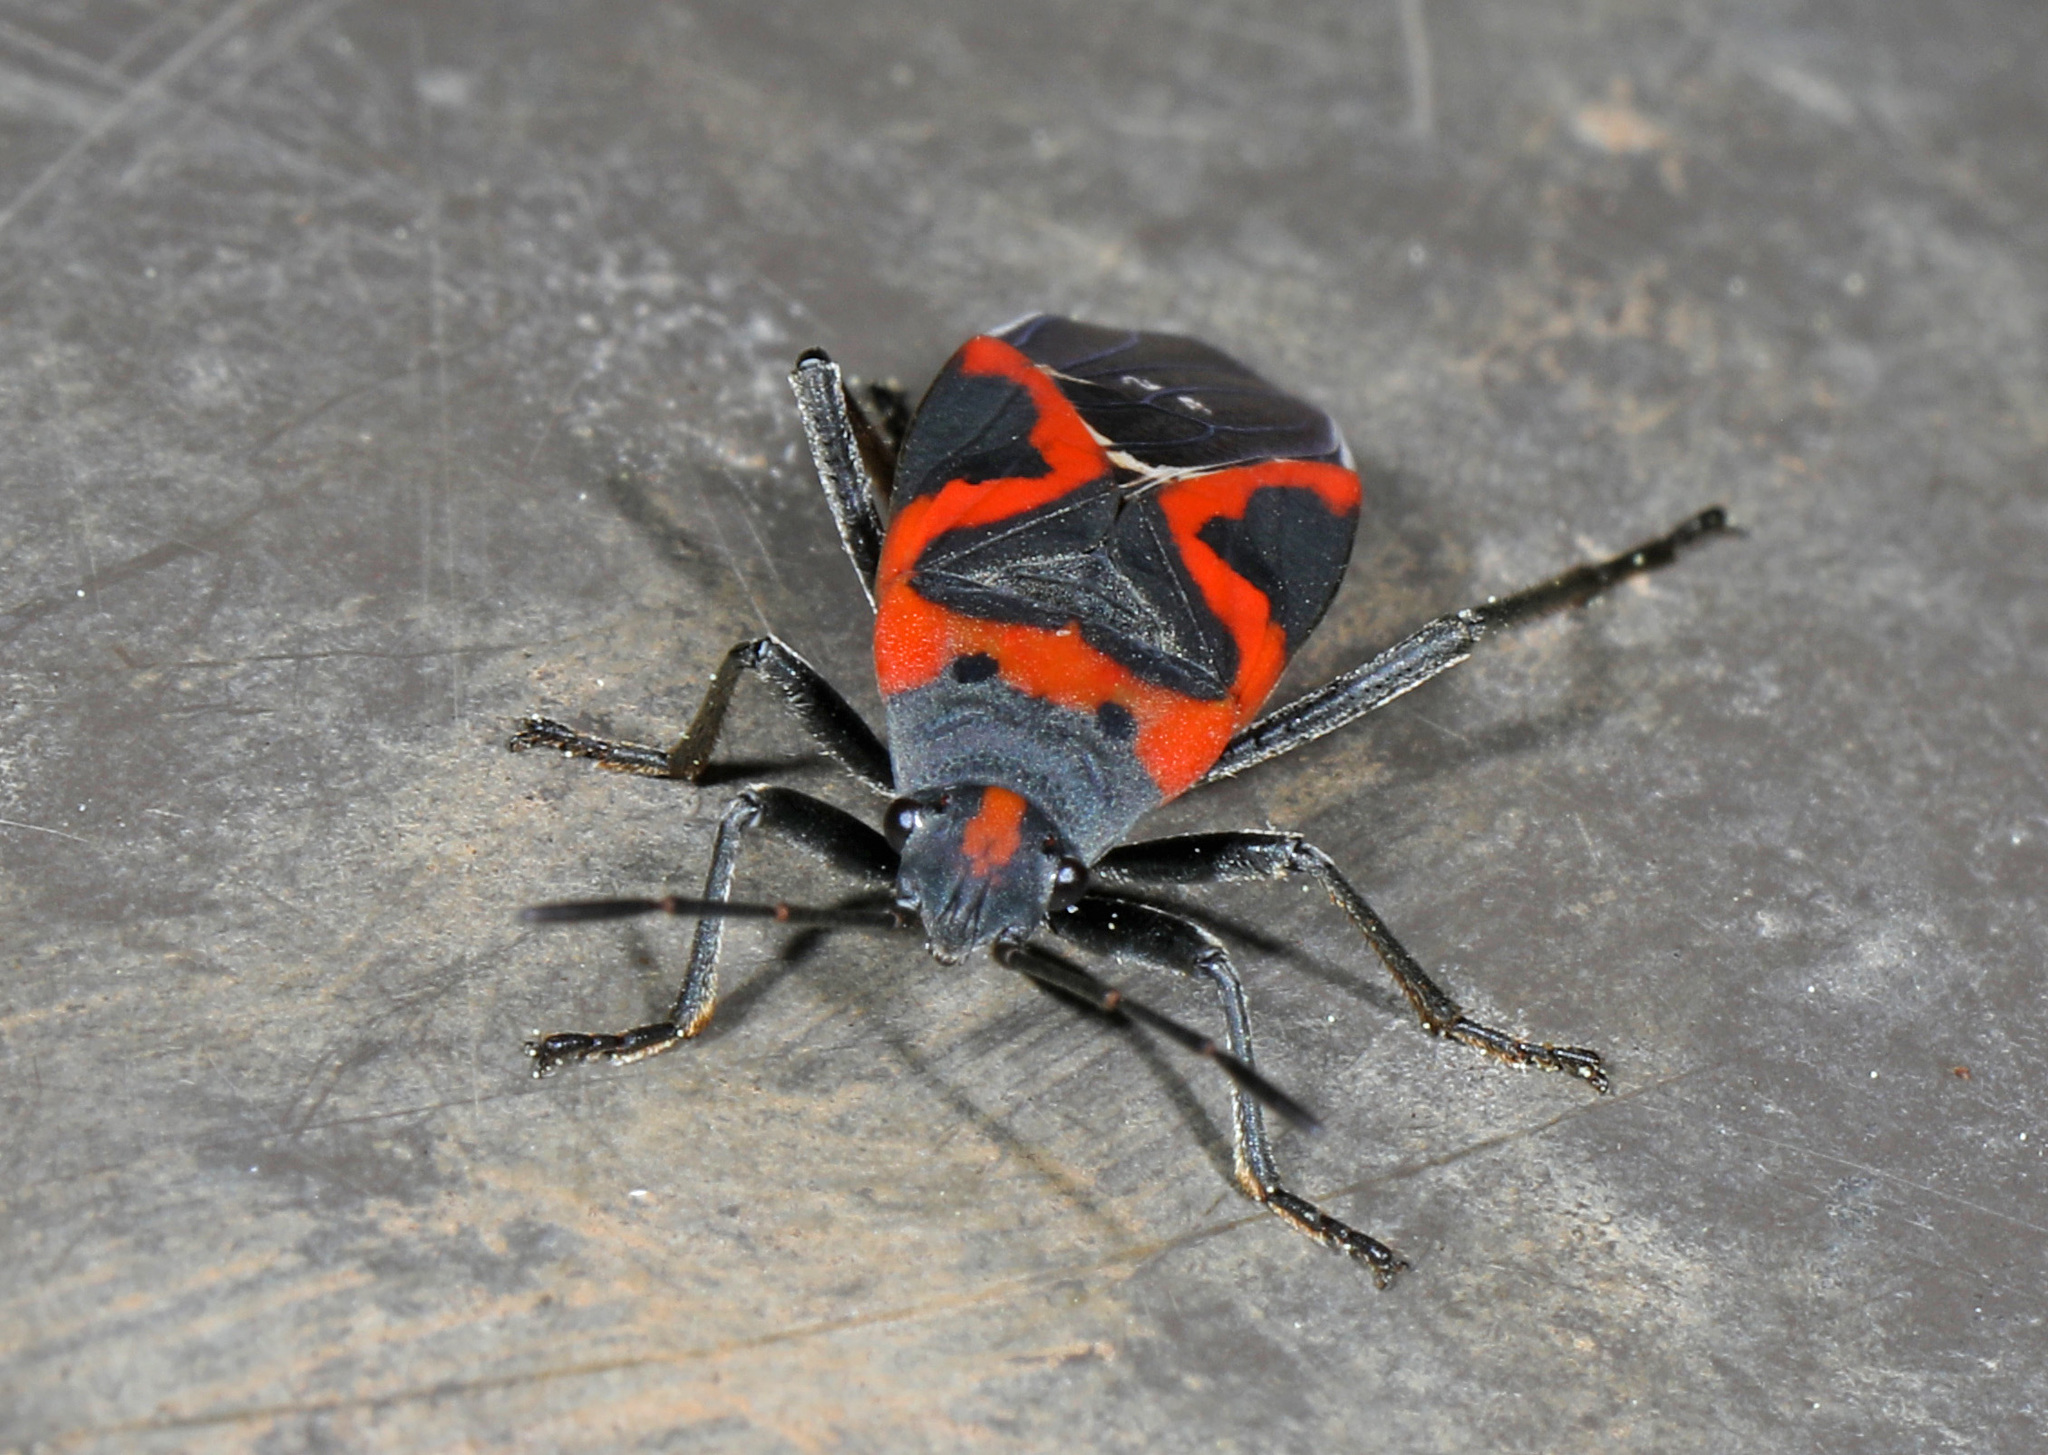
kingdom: Animalia
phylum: Arthropoda
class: Insecta
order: Hemiptera
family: Lygaeidae
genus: Lygaeus
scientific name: Lygaeus kalmii
